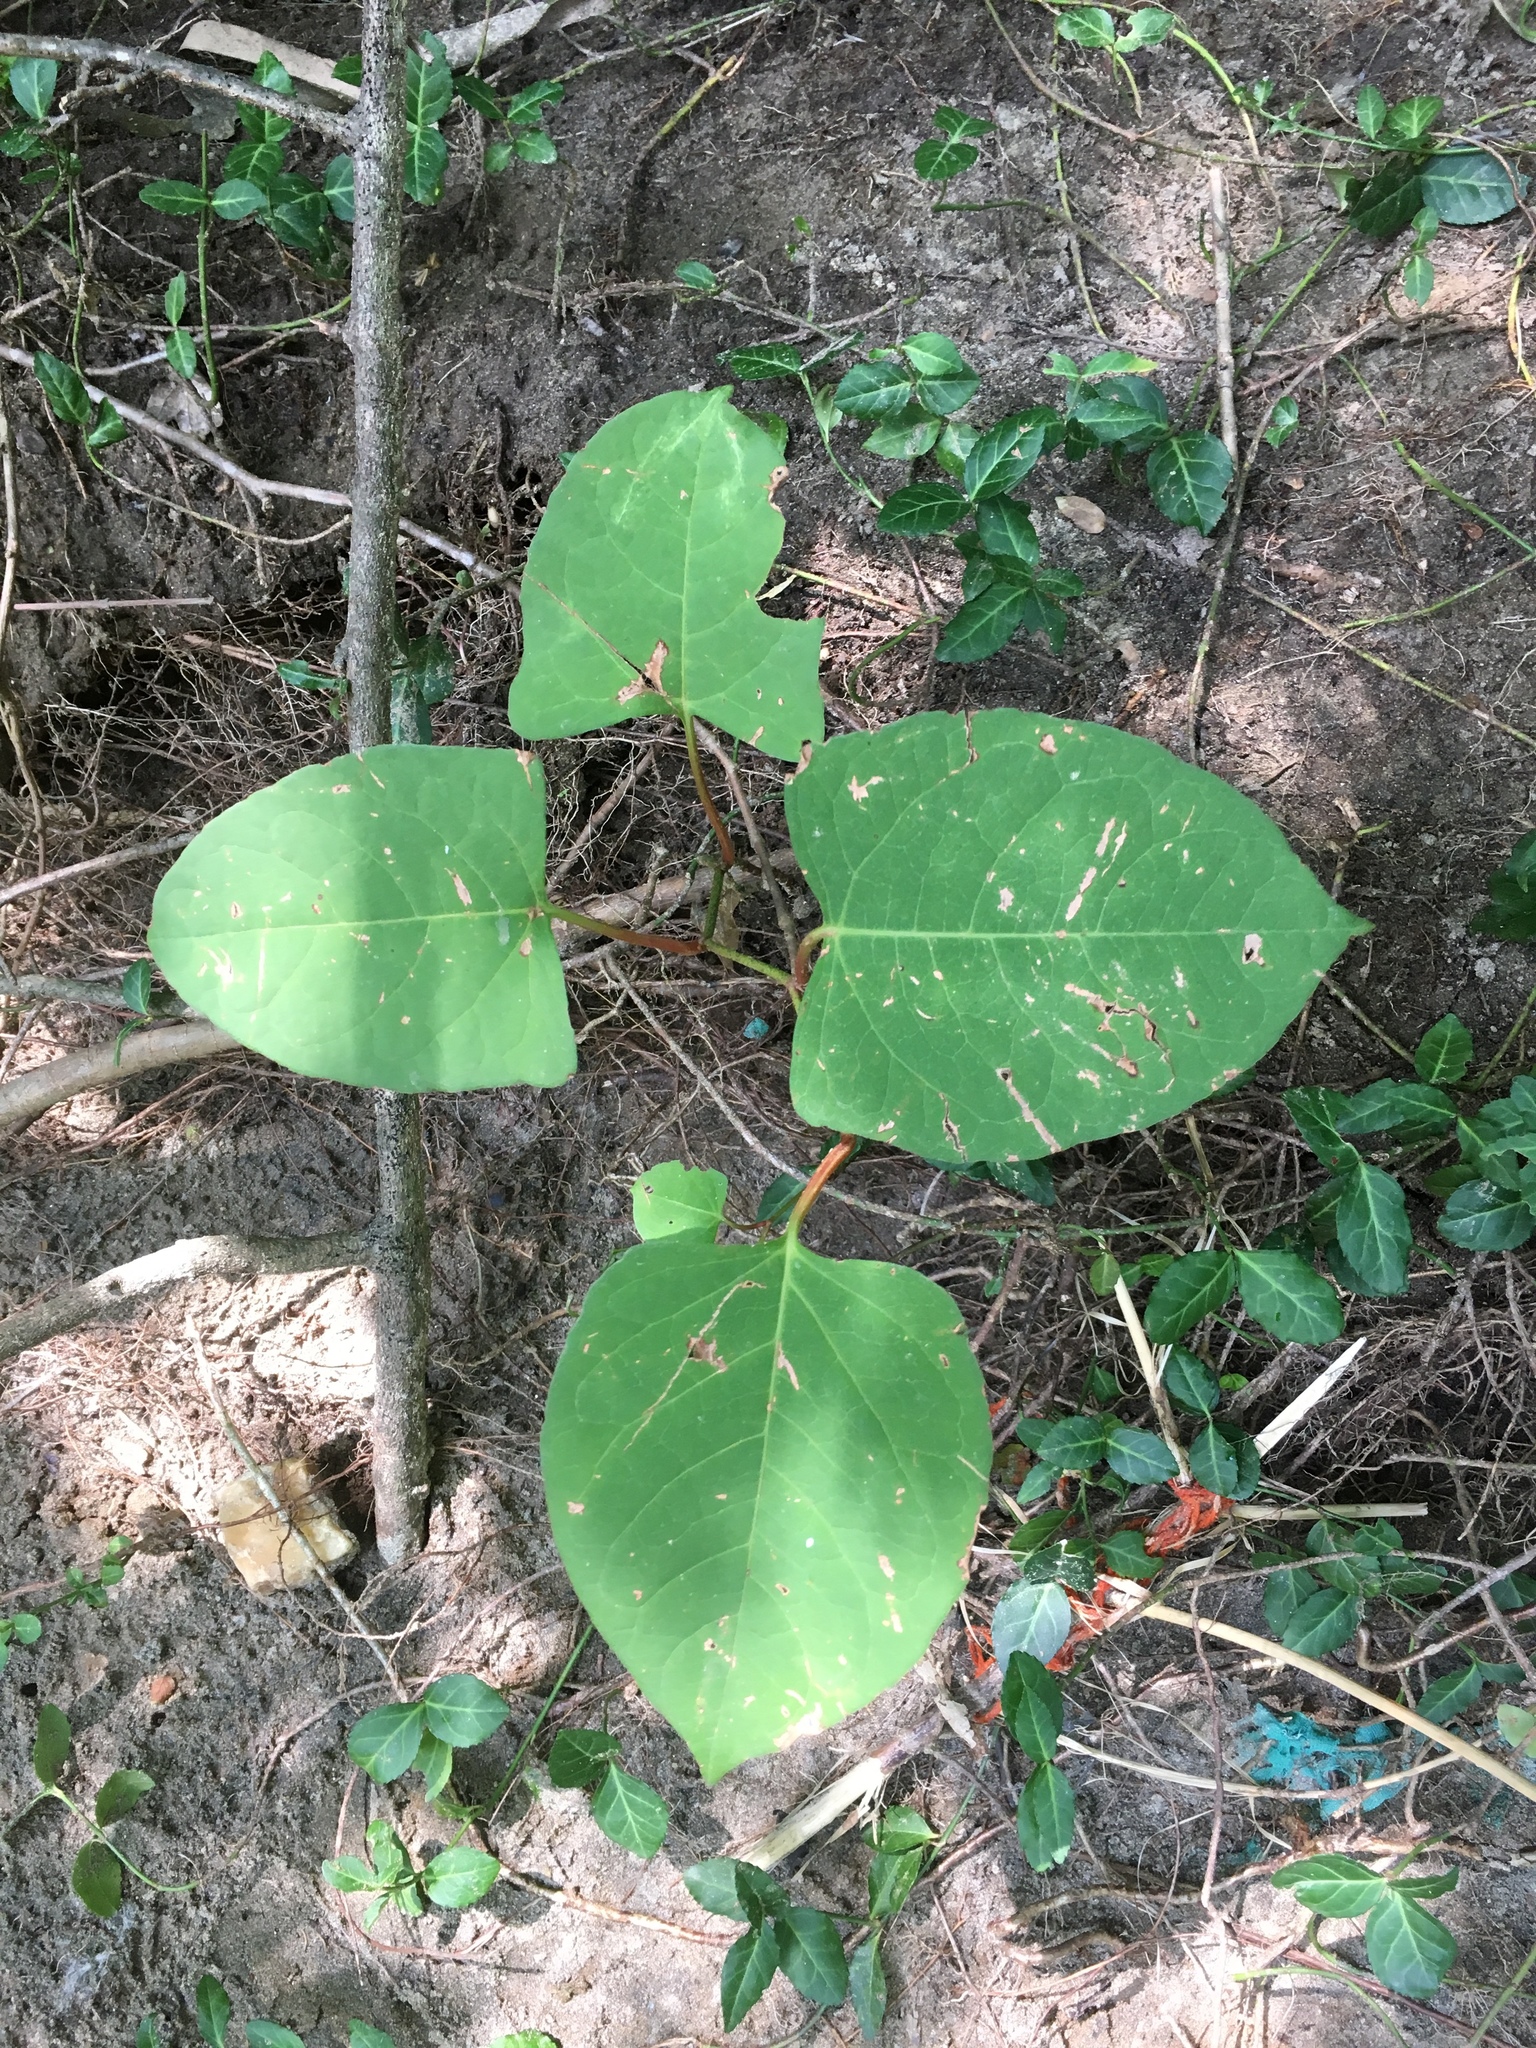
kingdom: Plantae
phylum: Tracheophyta
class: Magnoliopsida
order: Caryophyllales
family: Polygonaceae
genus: Reynoutria
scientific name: Reynoutria japonica
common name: Japanese knotweed
